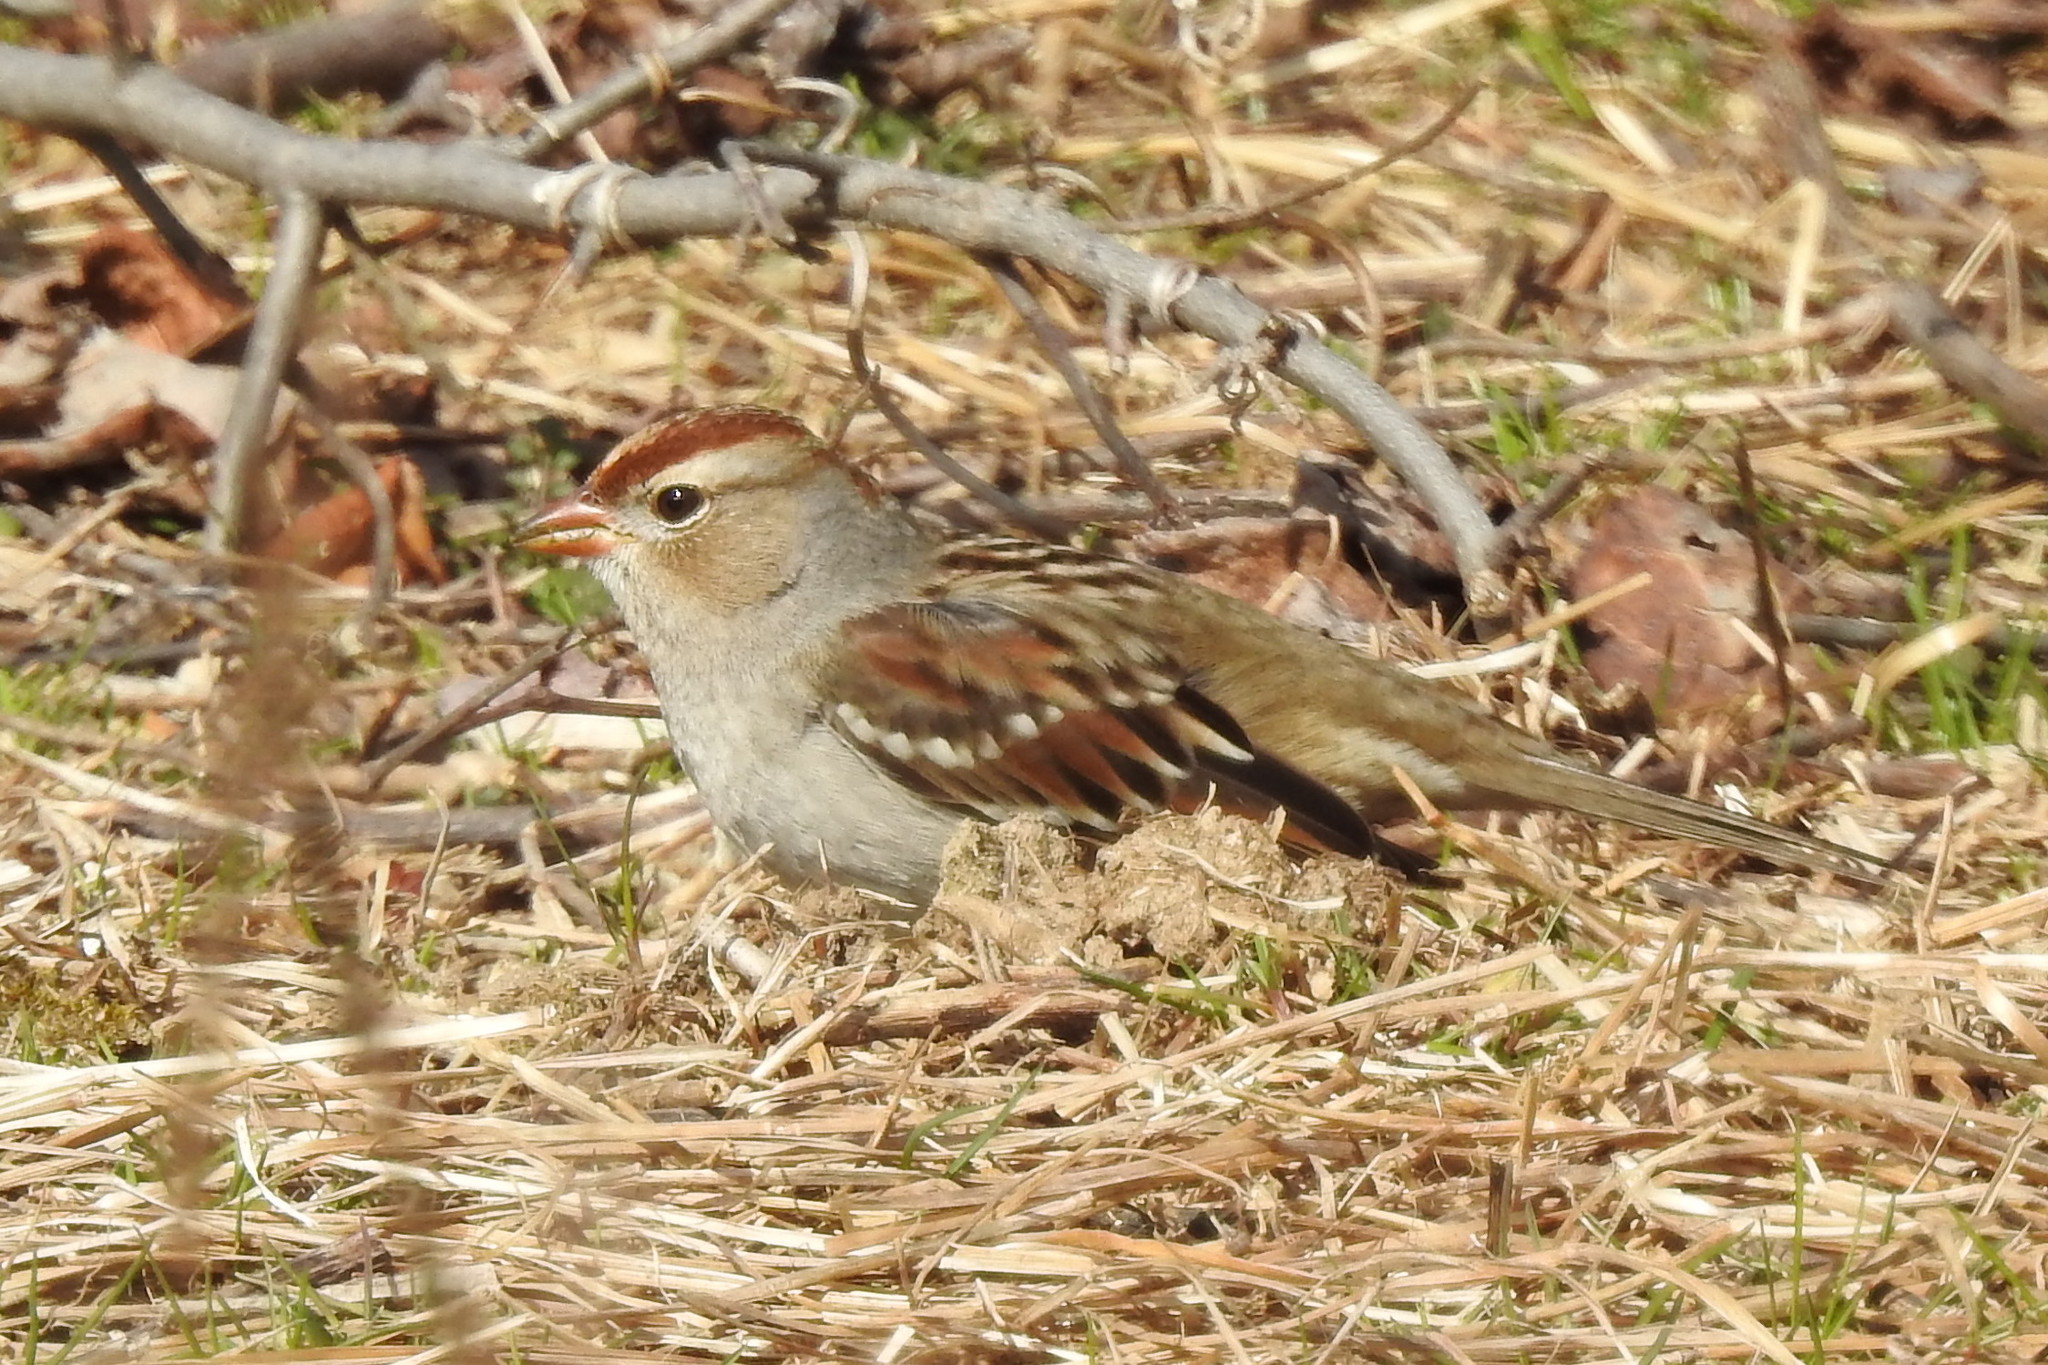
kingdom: Animalia
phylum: Chordata
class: Aves
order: Passeriformes
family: Passerellidae
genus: Spizella
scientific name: Spizella pusilla
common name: Field sparrow
